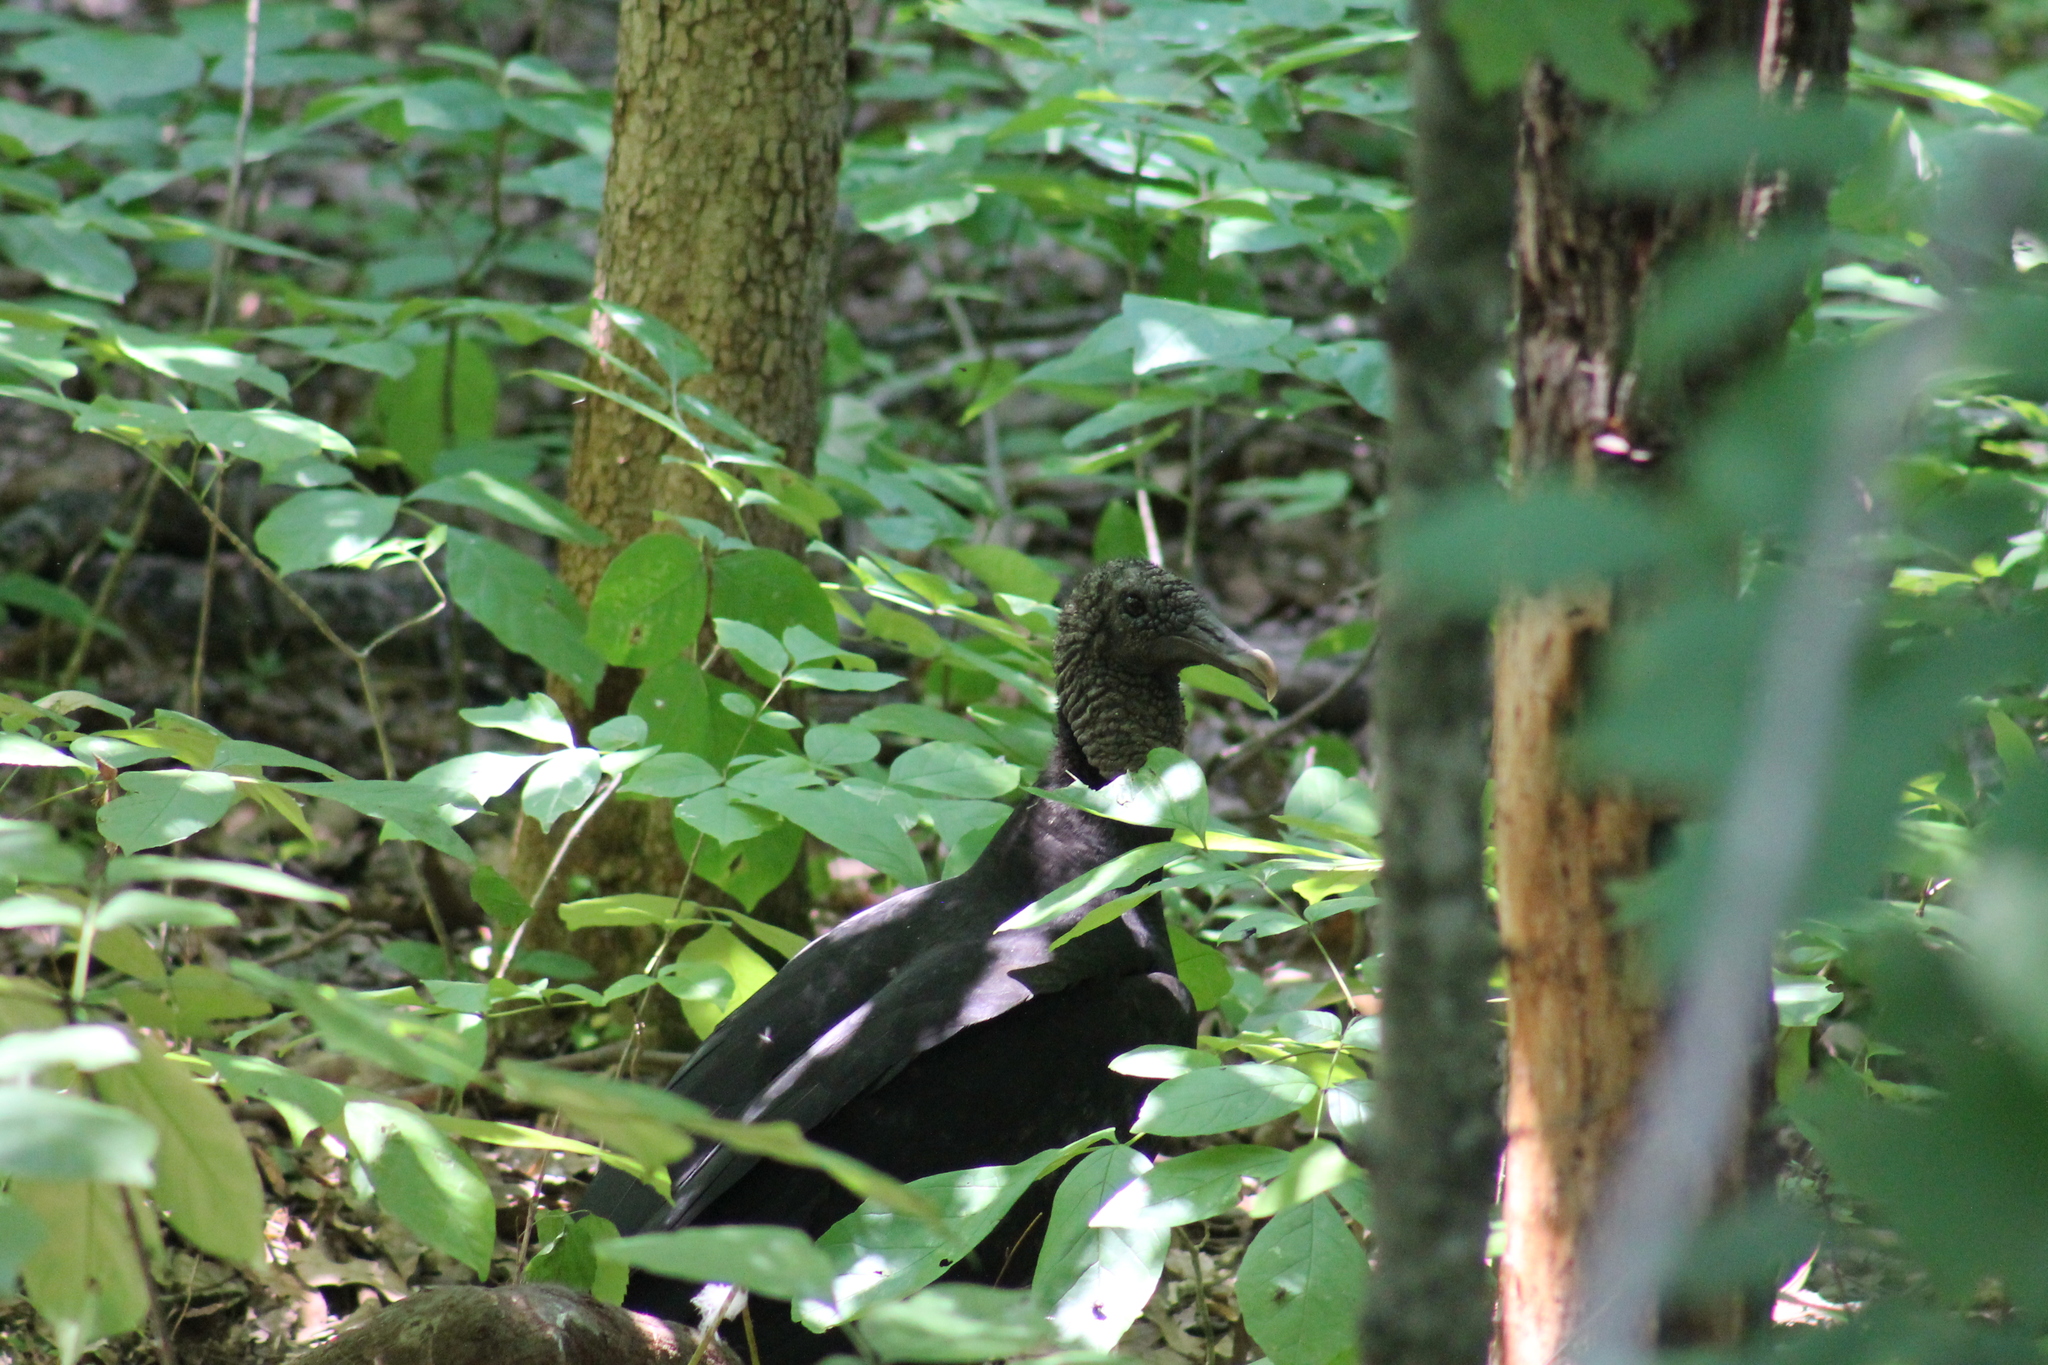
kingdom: Animalia
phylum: Chordata
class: Aves
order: Accipitriformes
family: Cathartidae
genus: Coragyps
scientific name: Coragyps atratus
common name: Black vulture
